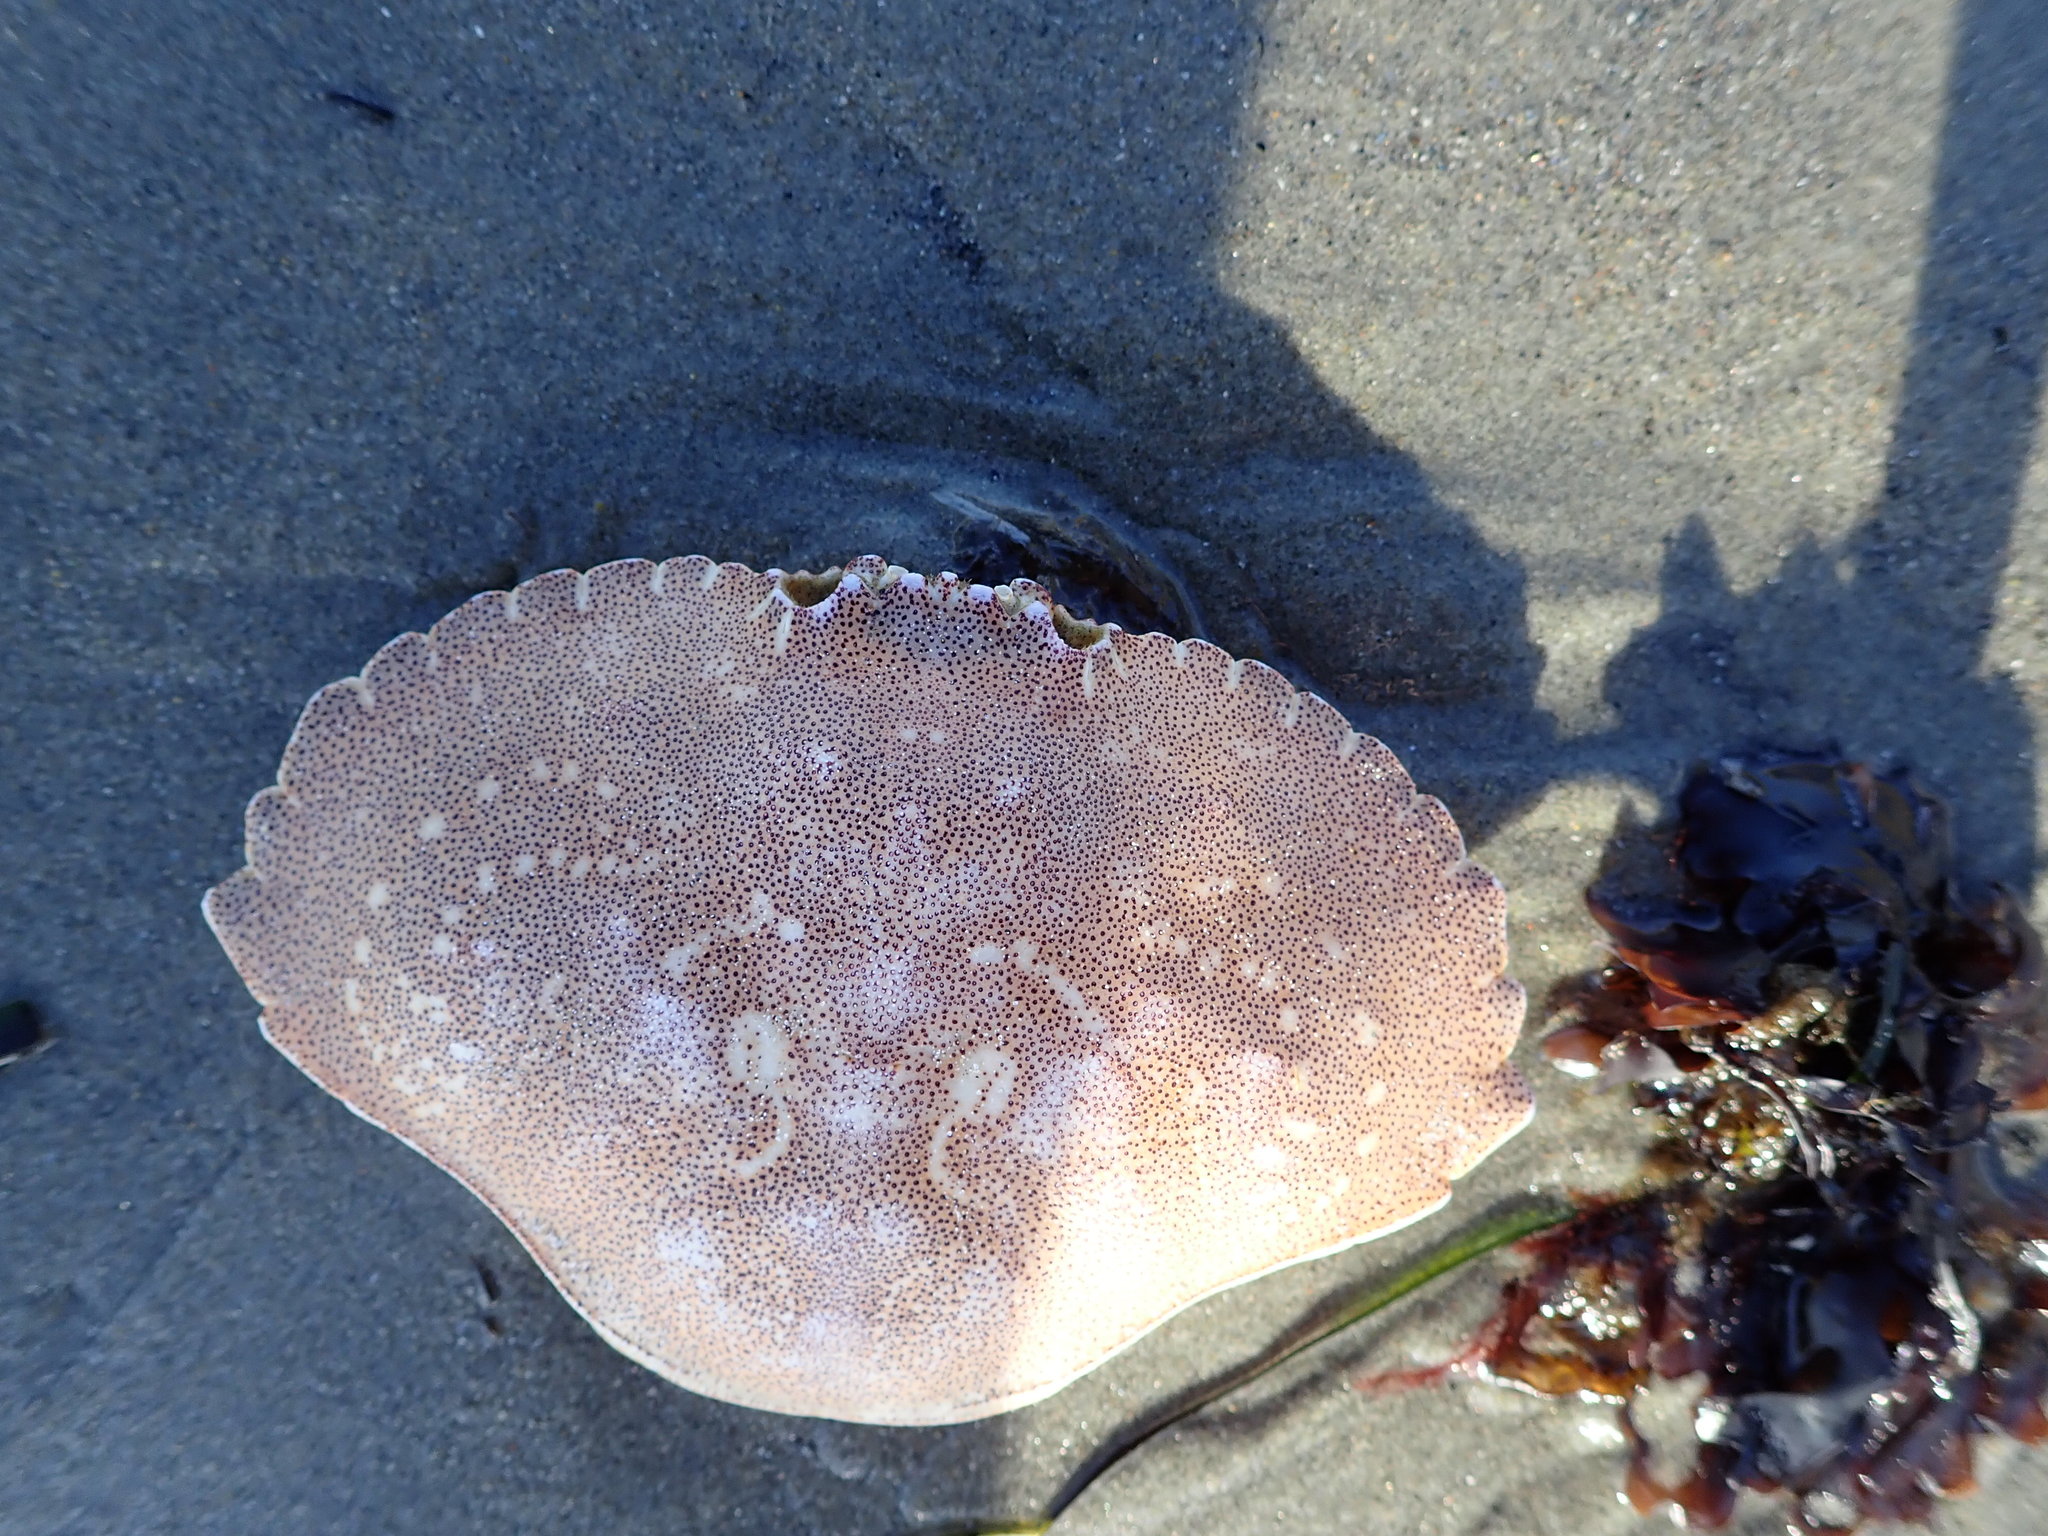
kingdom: Animalia
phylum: Arthropoda
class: Malacostraca
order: Decapoda
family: Cancridae
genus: Cancer
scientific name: Cancer irroratus
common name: Atlantic rock crab
